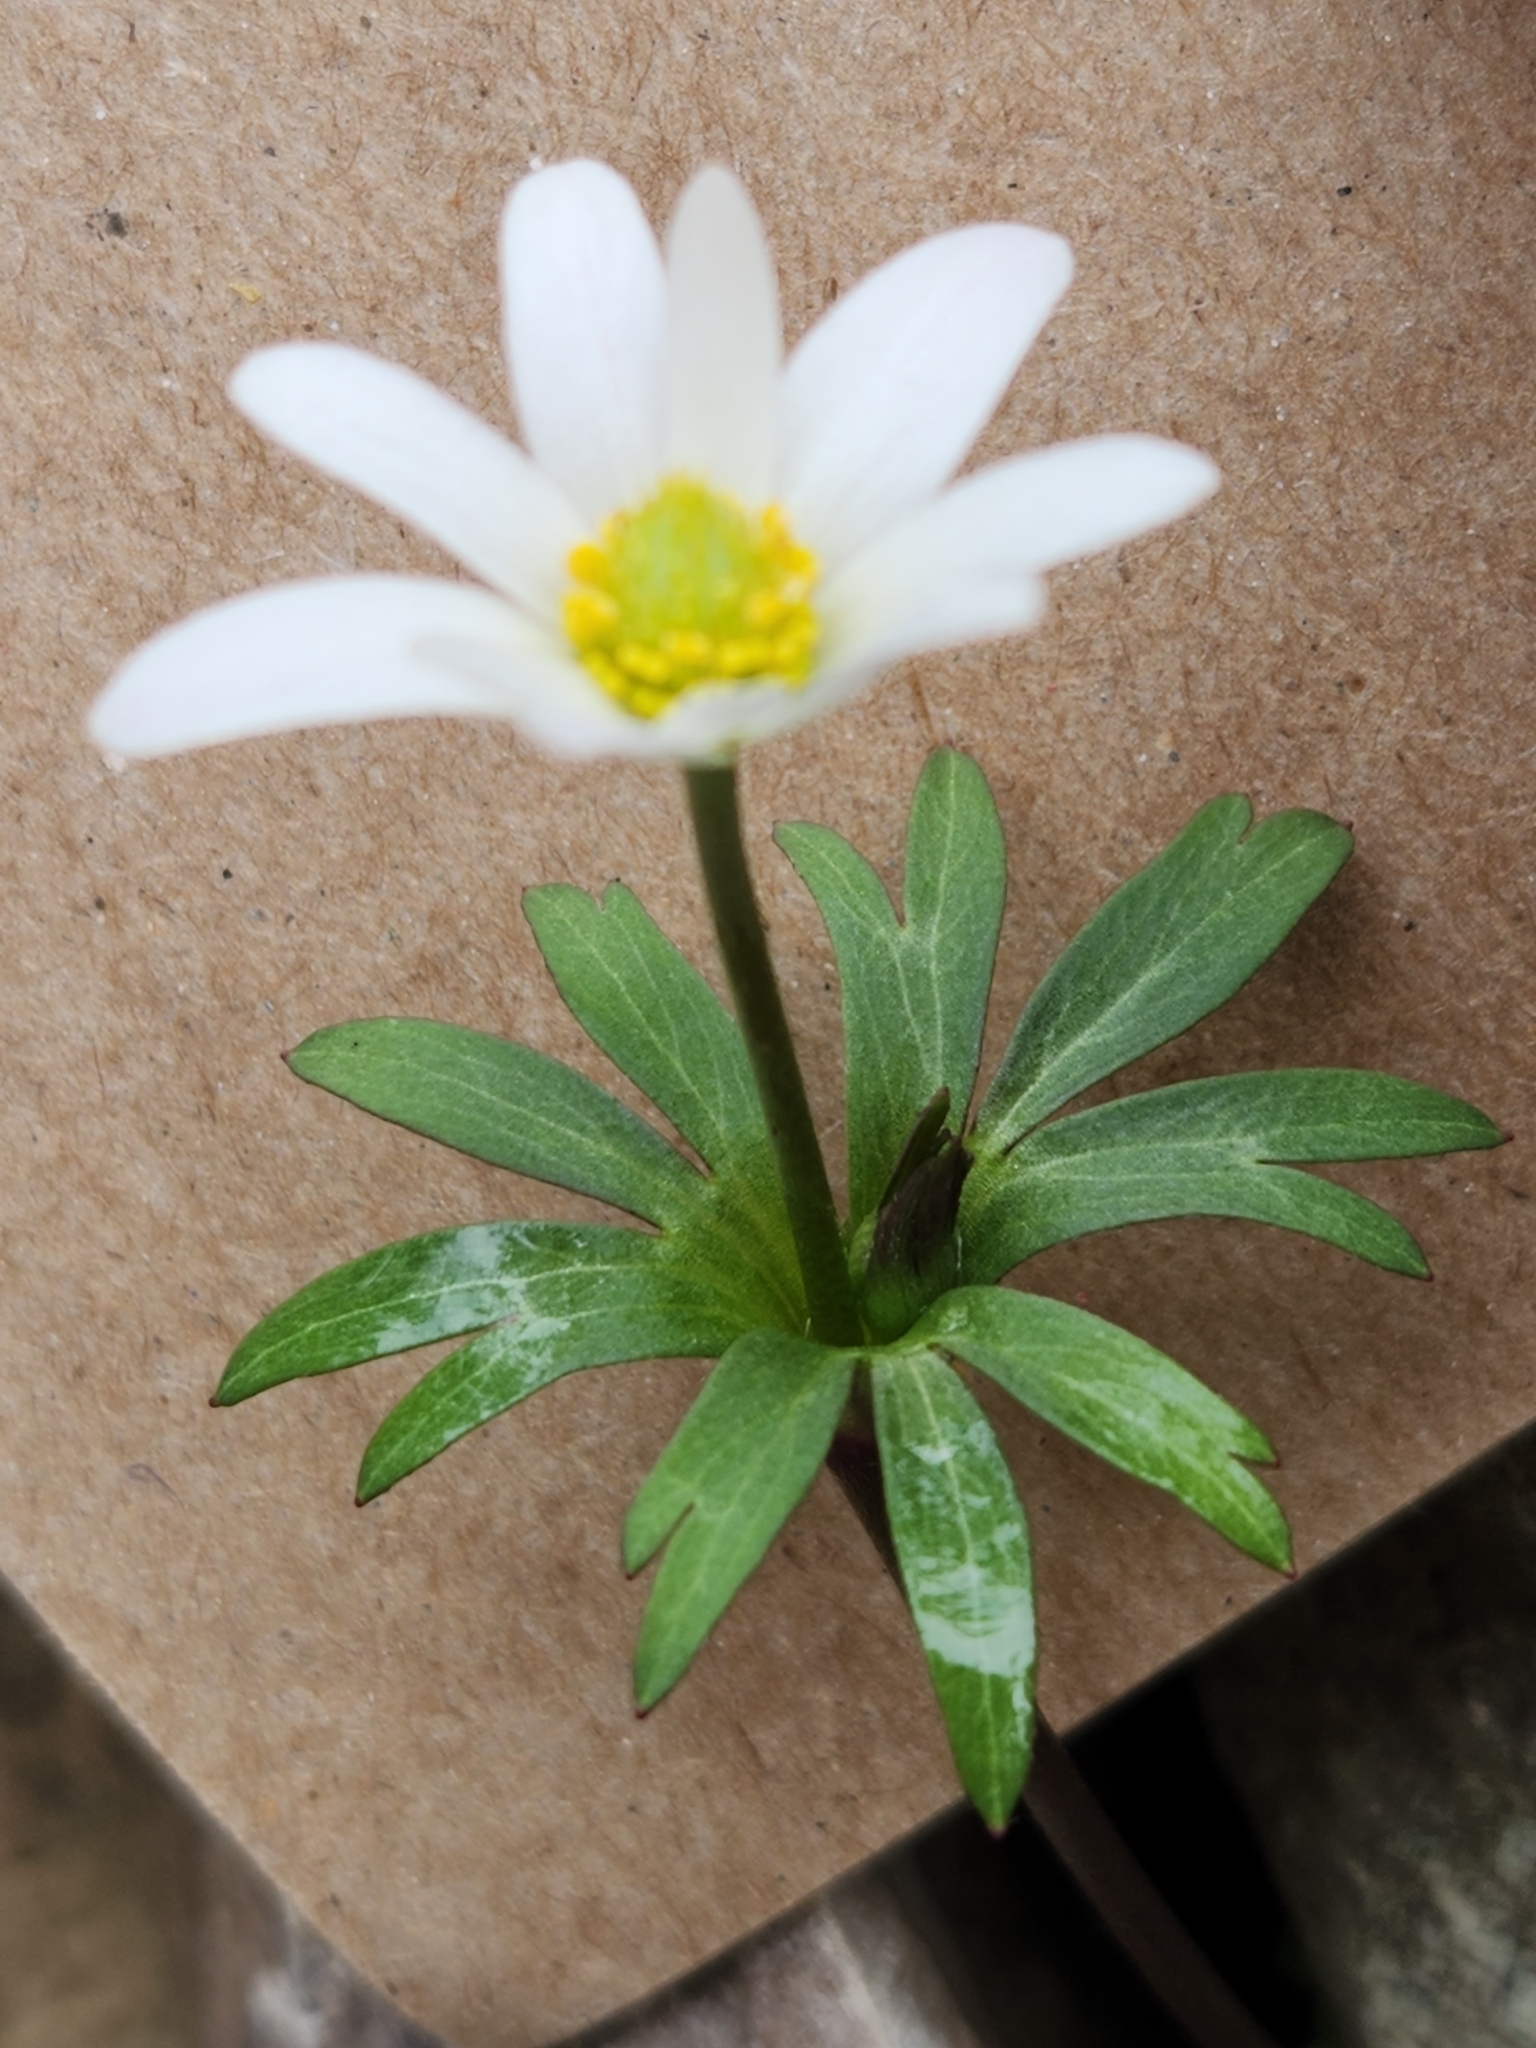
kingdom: Plantae
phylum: Tracheophyta
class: Magnoliopsida
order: Ranunculales
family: Ranunculaceae
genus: Anemone
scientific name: Anemone edwardsiana
